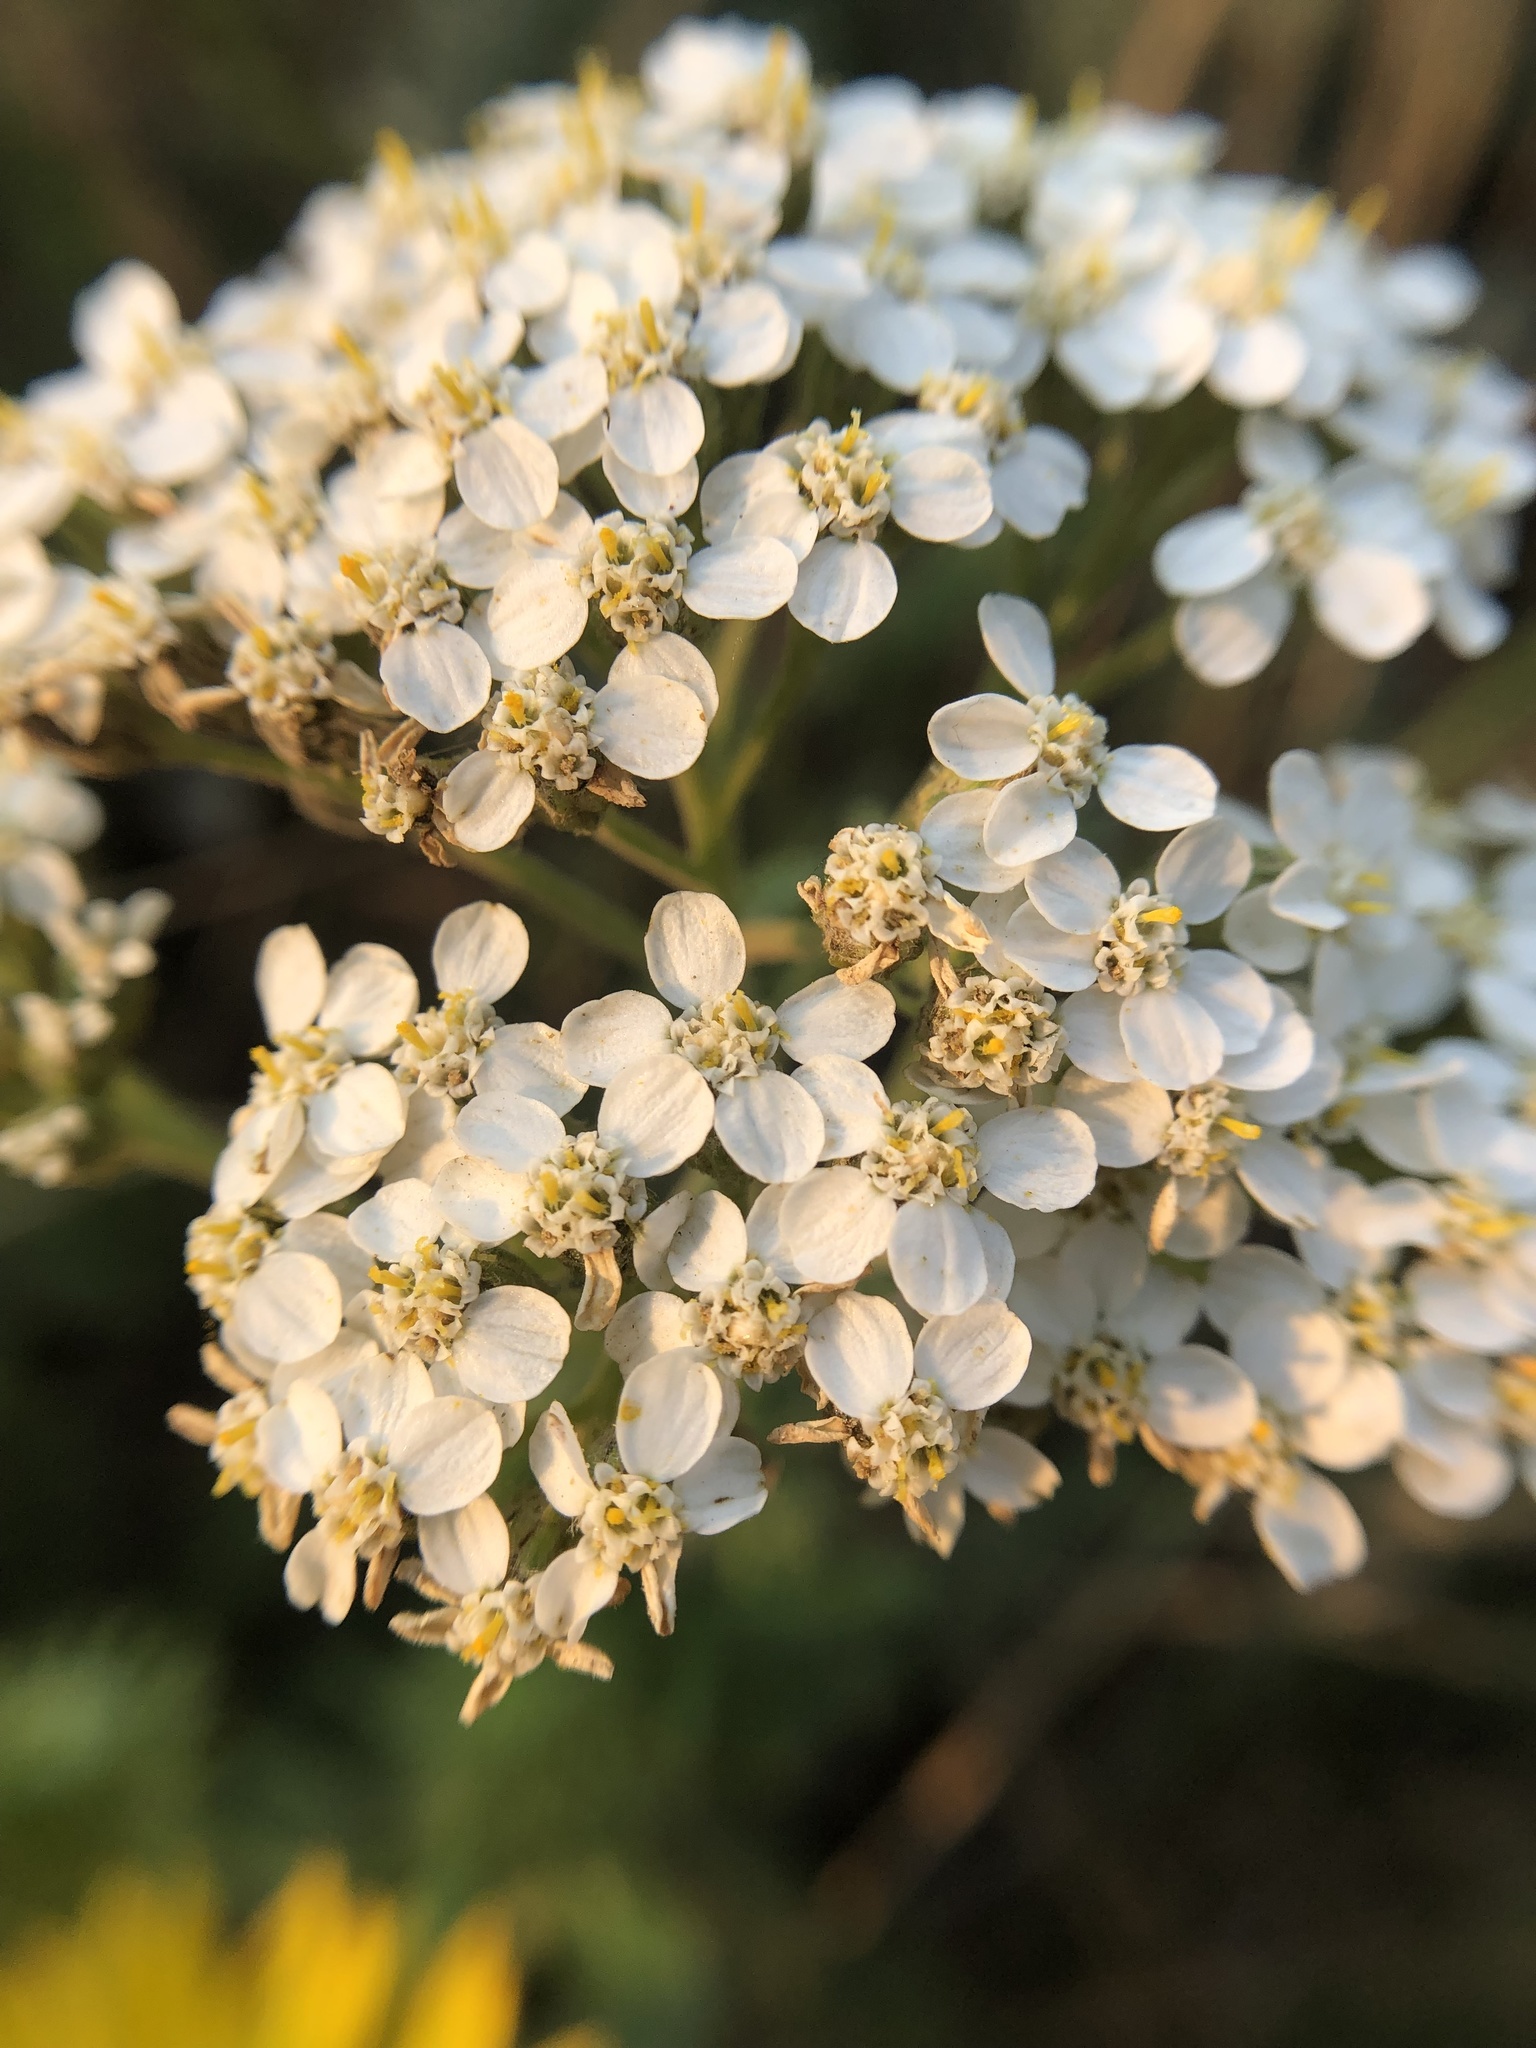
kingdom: Plantae
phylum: Tracheophyta
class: Magnoliopsida
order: Asterales
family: Asteraceae
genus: Achillea
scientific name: Achillea millefolium
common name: Yarrow
